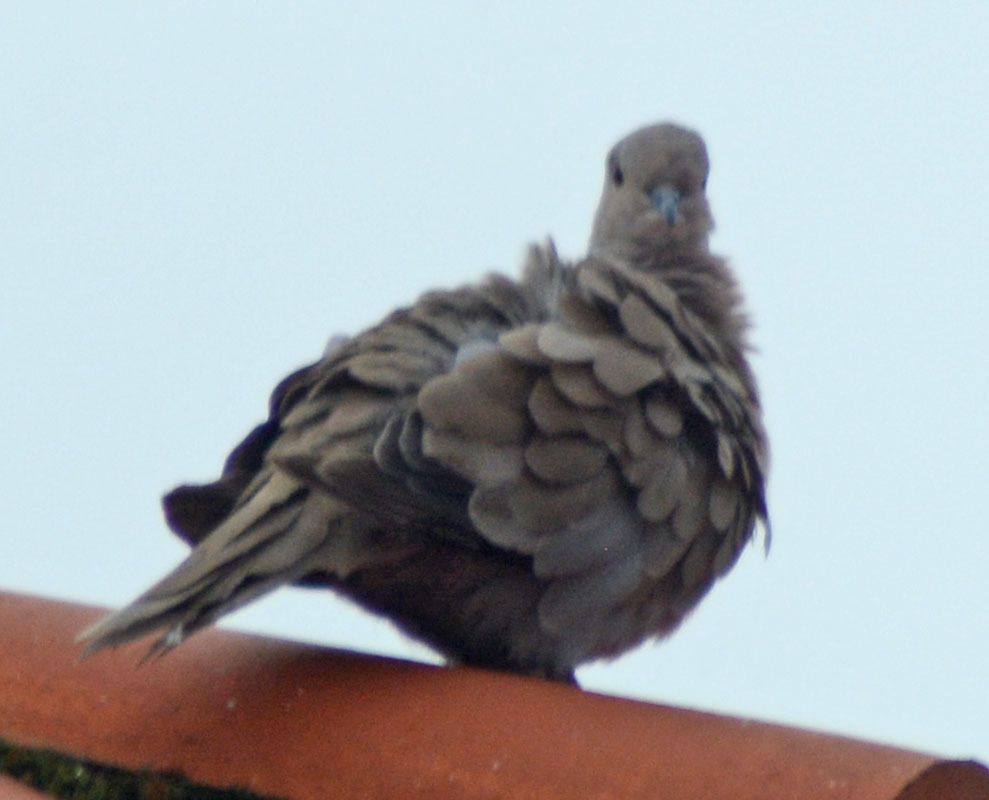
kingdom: Animalia
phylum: Chordata
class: Aves
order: Columbiformes
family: Columbidae
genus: Columbina
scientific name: Columbina inca
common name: Inca dove
